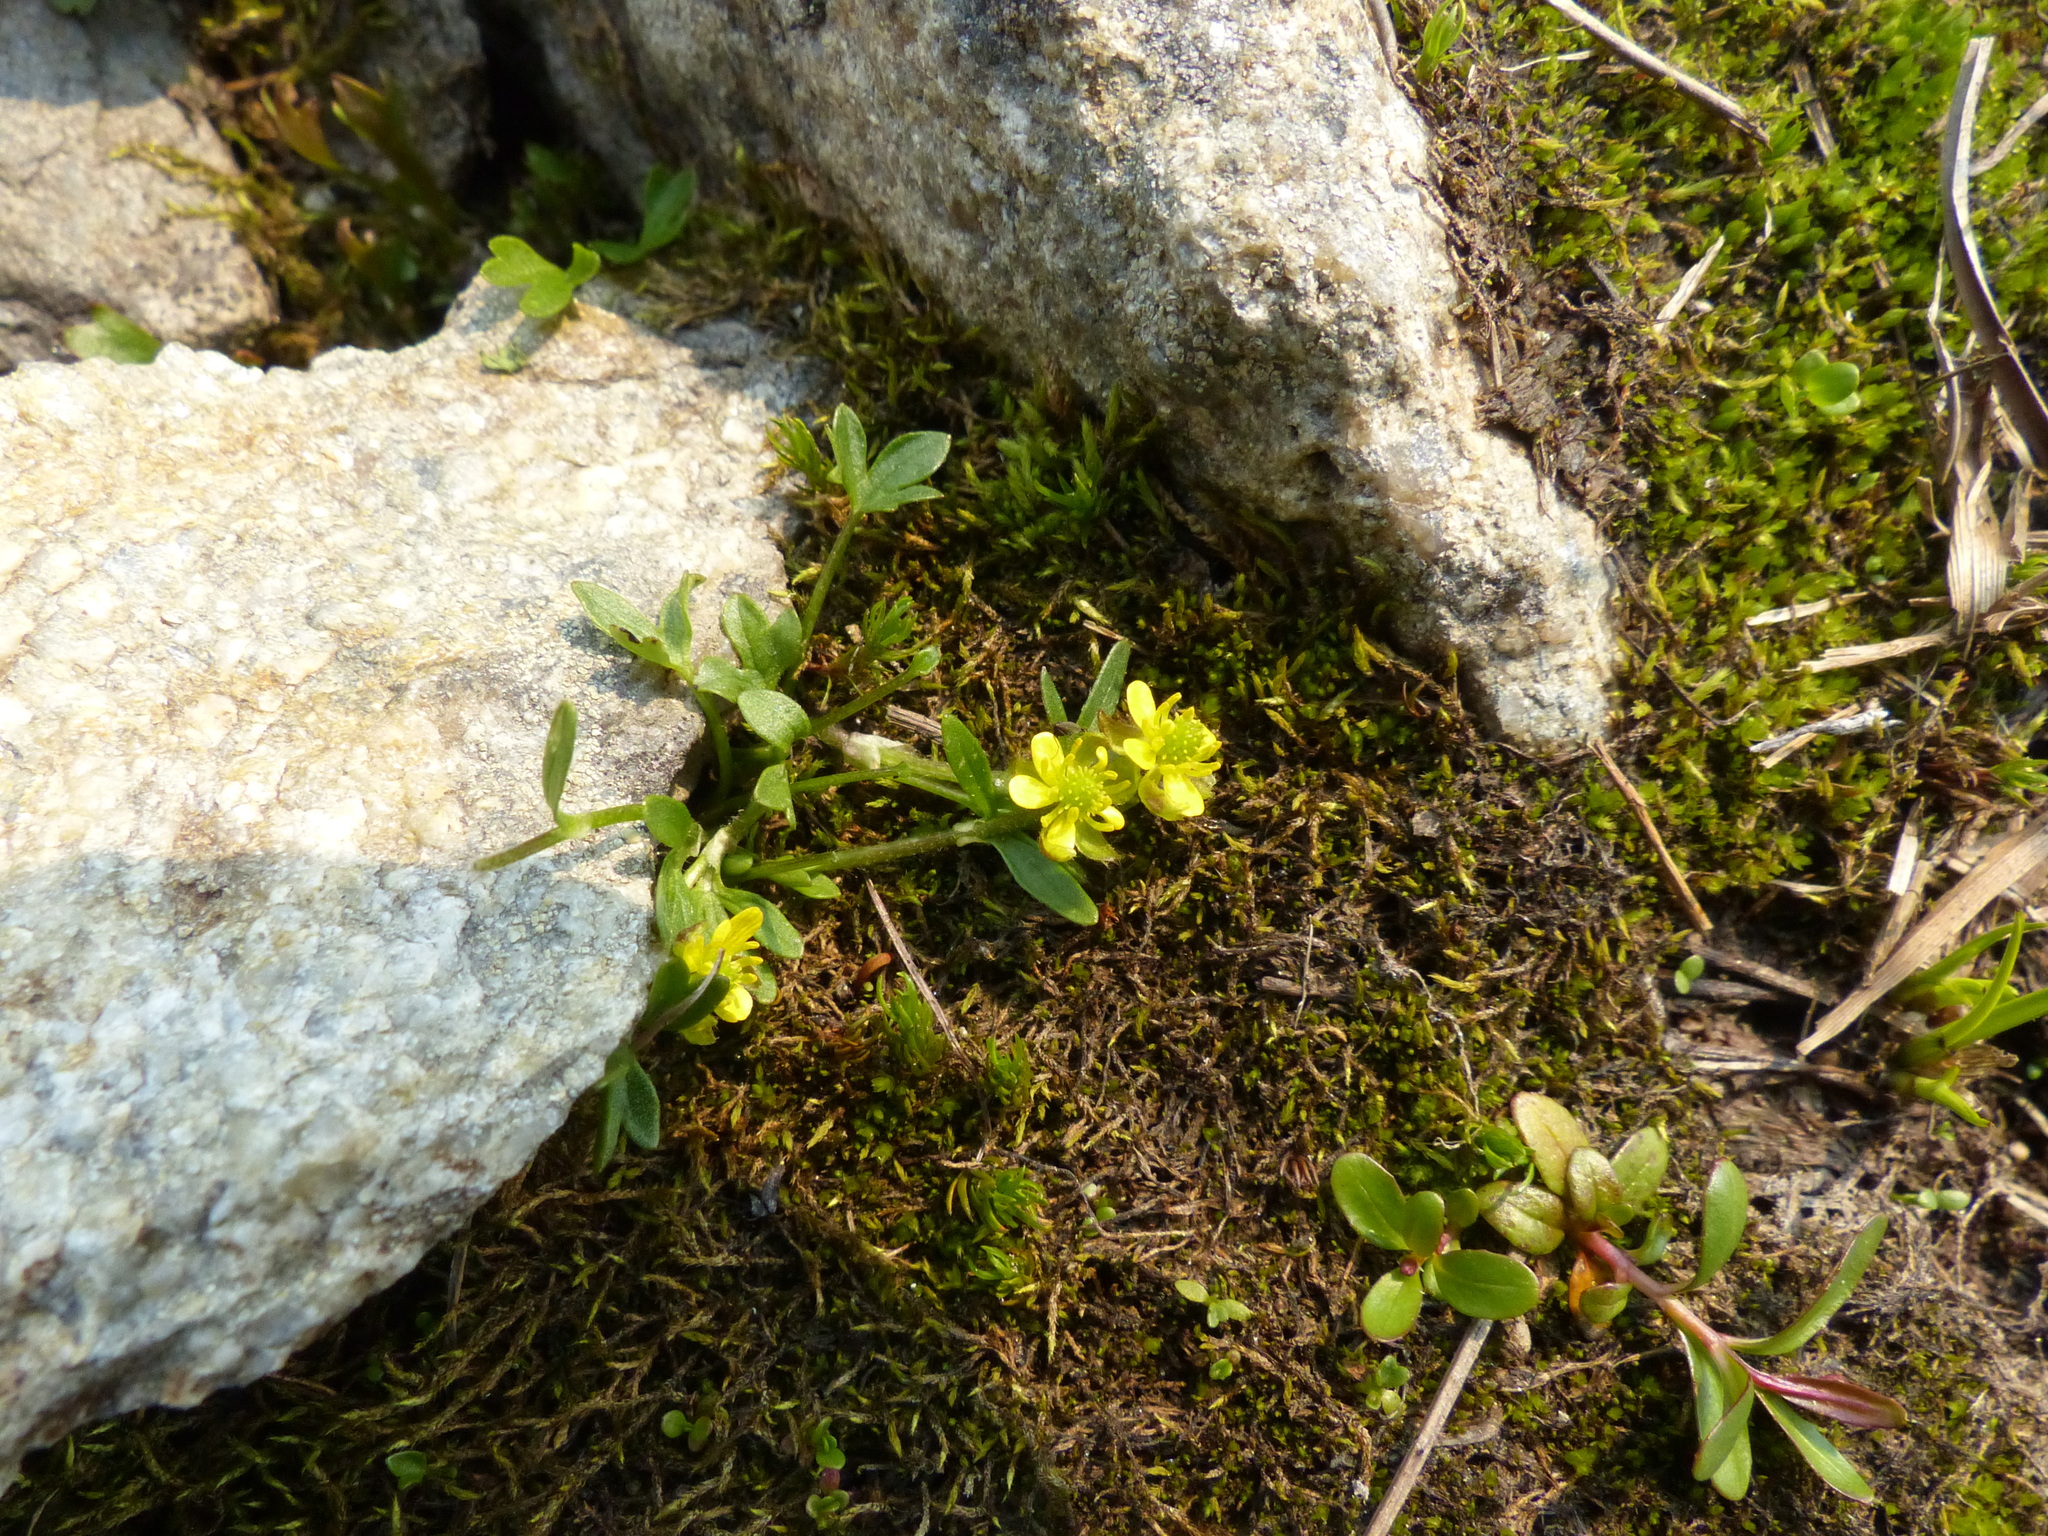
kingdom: Plantae
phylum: Tracheophyta
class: Magnoliopsida
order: Ranunculales
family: Ranunculaceae
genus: Ranunculus
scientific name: Ranunculus pygmaeus
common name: Dwarf buttercup
